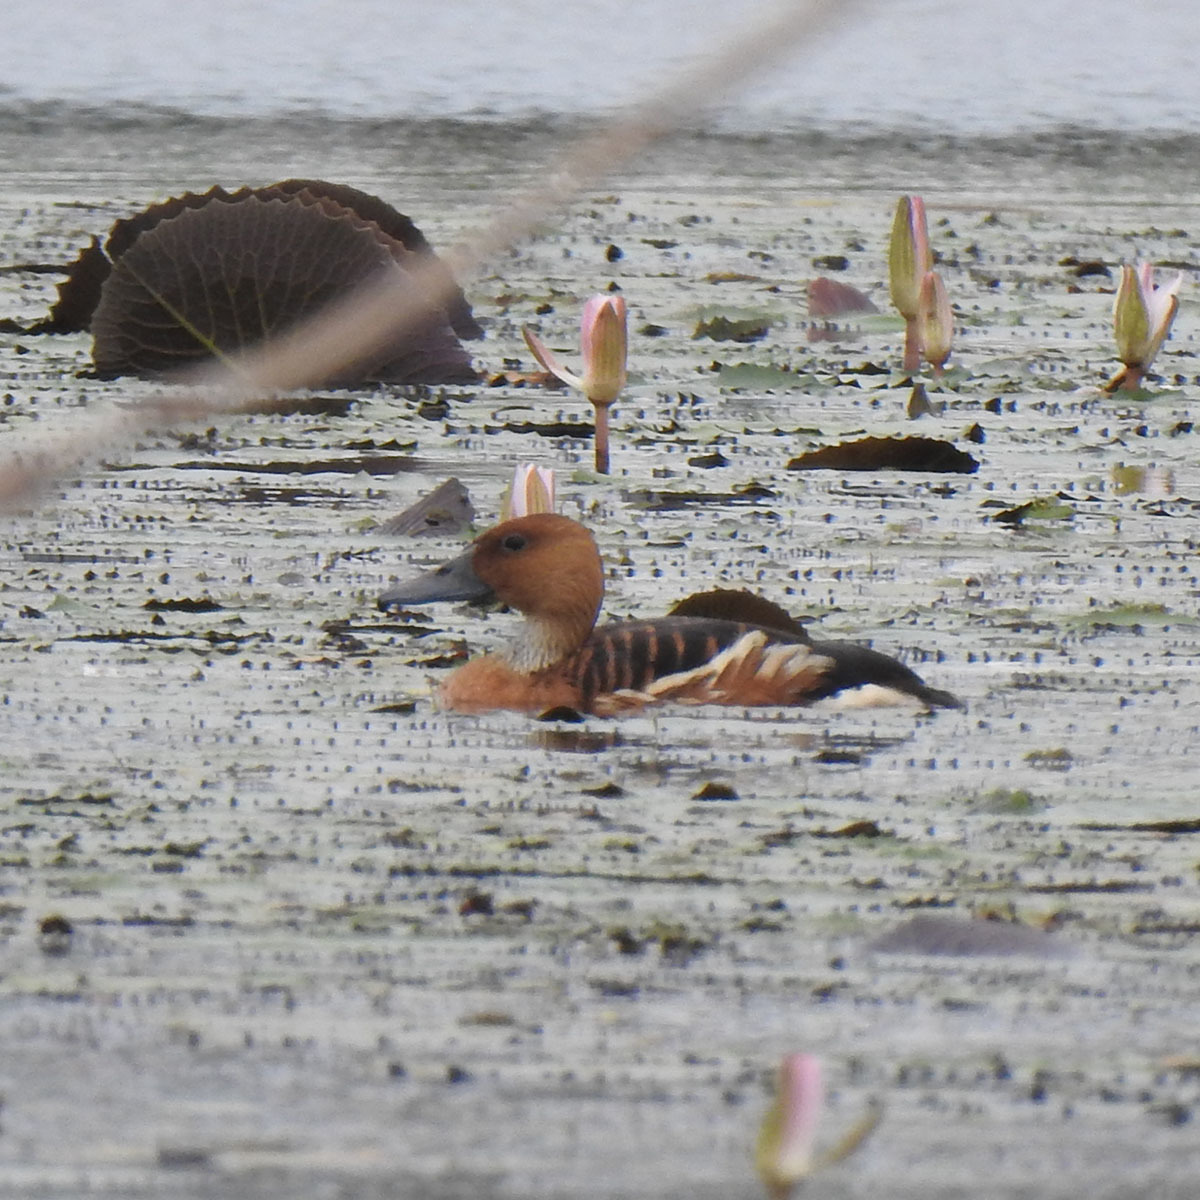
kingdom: Animalia
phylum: Chordata
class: Aves
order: Anseriformes
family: Anatidae
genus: Dendrocygna
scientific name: Dendrocygna bicolor
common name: Fulvous whistling duck
